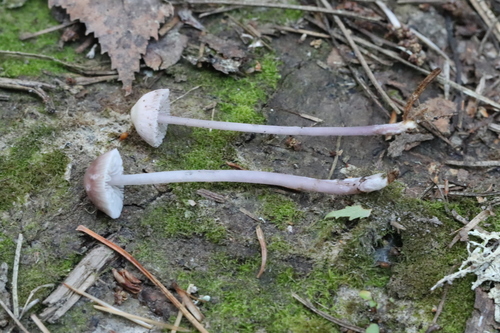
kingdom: Fungi
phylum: Basidiomycota
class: Agaricomycetes
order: Agaricales
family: Mycenaceae
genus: Mycena
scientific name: Mycena pura
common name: Lilac bonnet
